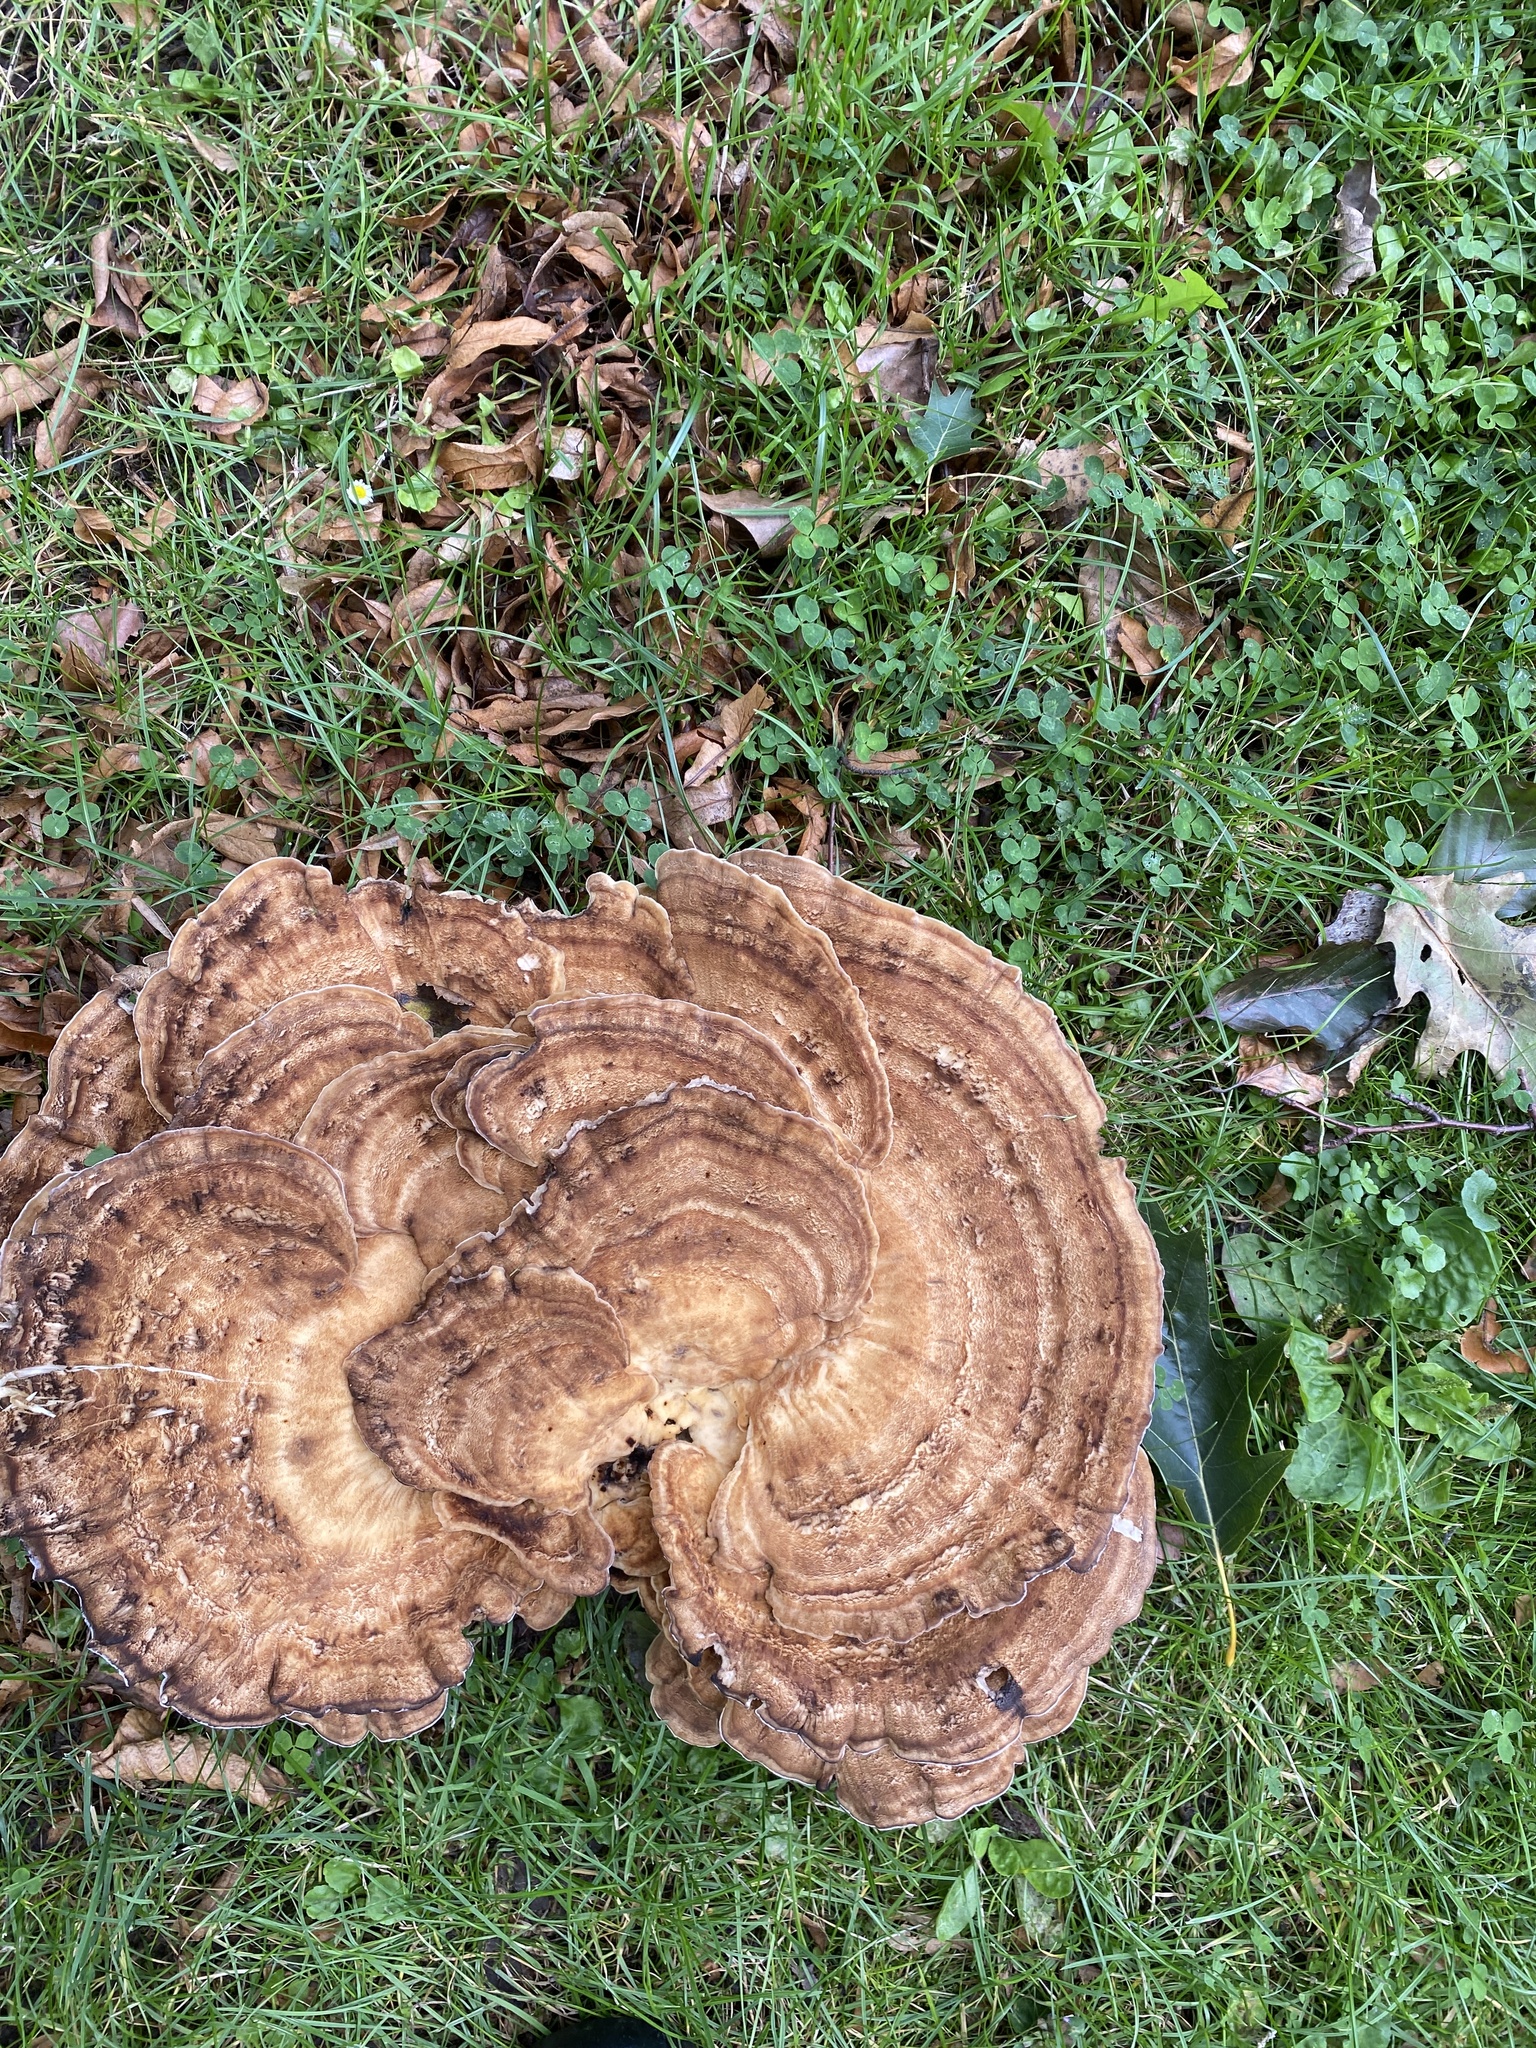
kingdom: Fungi
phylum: Basidiomycota
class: Agaricomycetes
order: Polyporales
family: Meripilaceae
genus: Meripilus
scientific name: Meripilus giganteus
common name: Giant polypore
